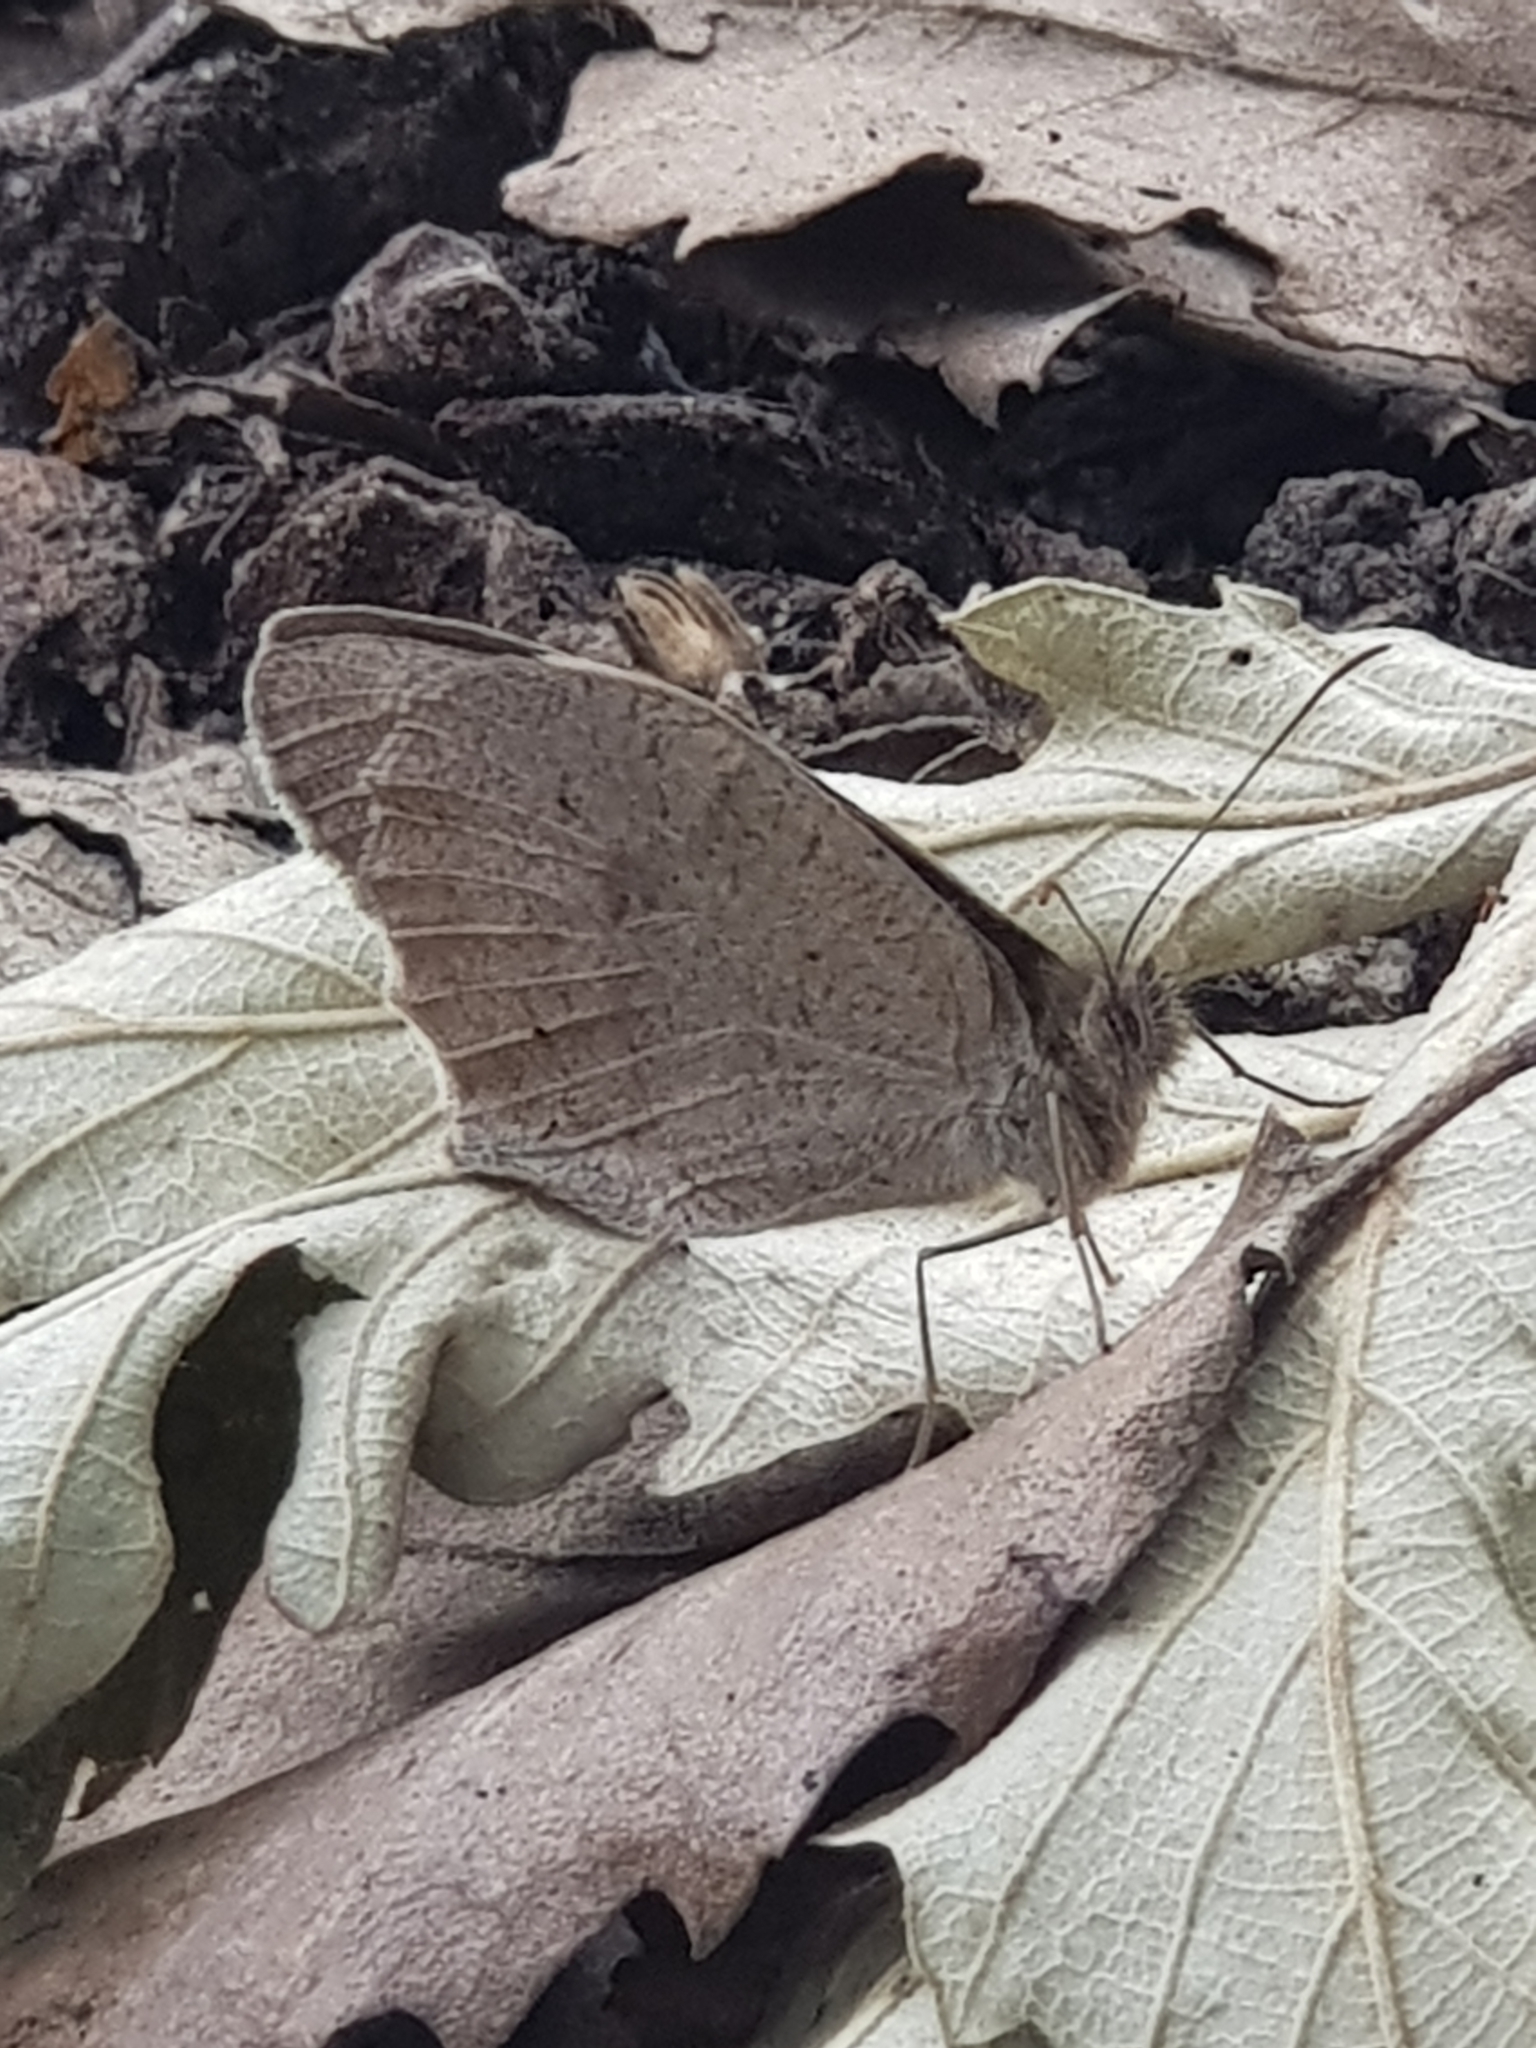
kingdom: Animalia
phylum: Arthropoda
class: Insecta
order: Lepidoptera
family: Nymphalidae
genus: Maniola
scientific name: Maniola jurtina
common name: Meadow brown
